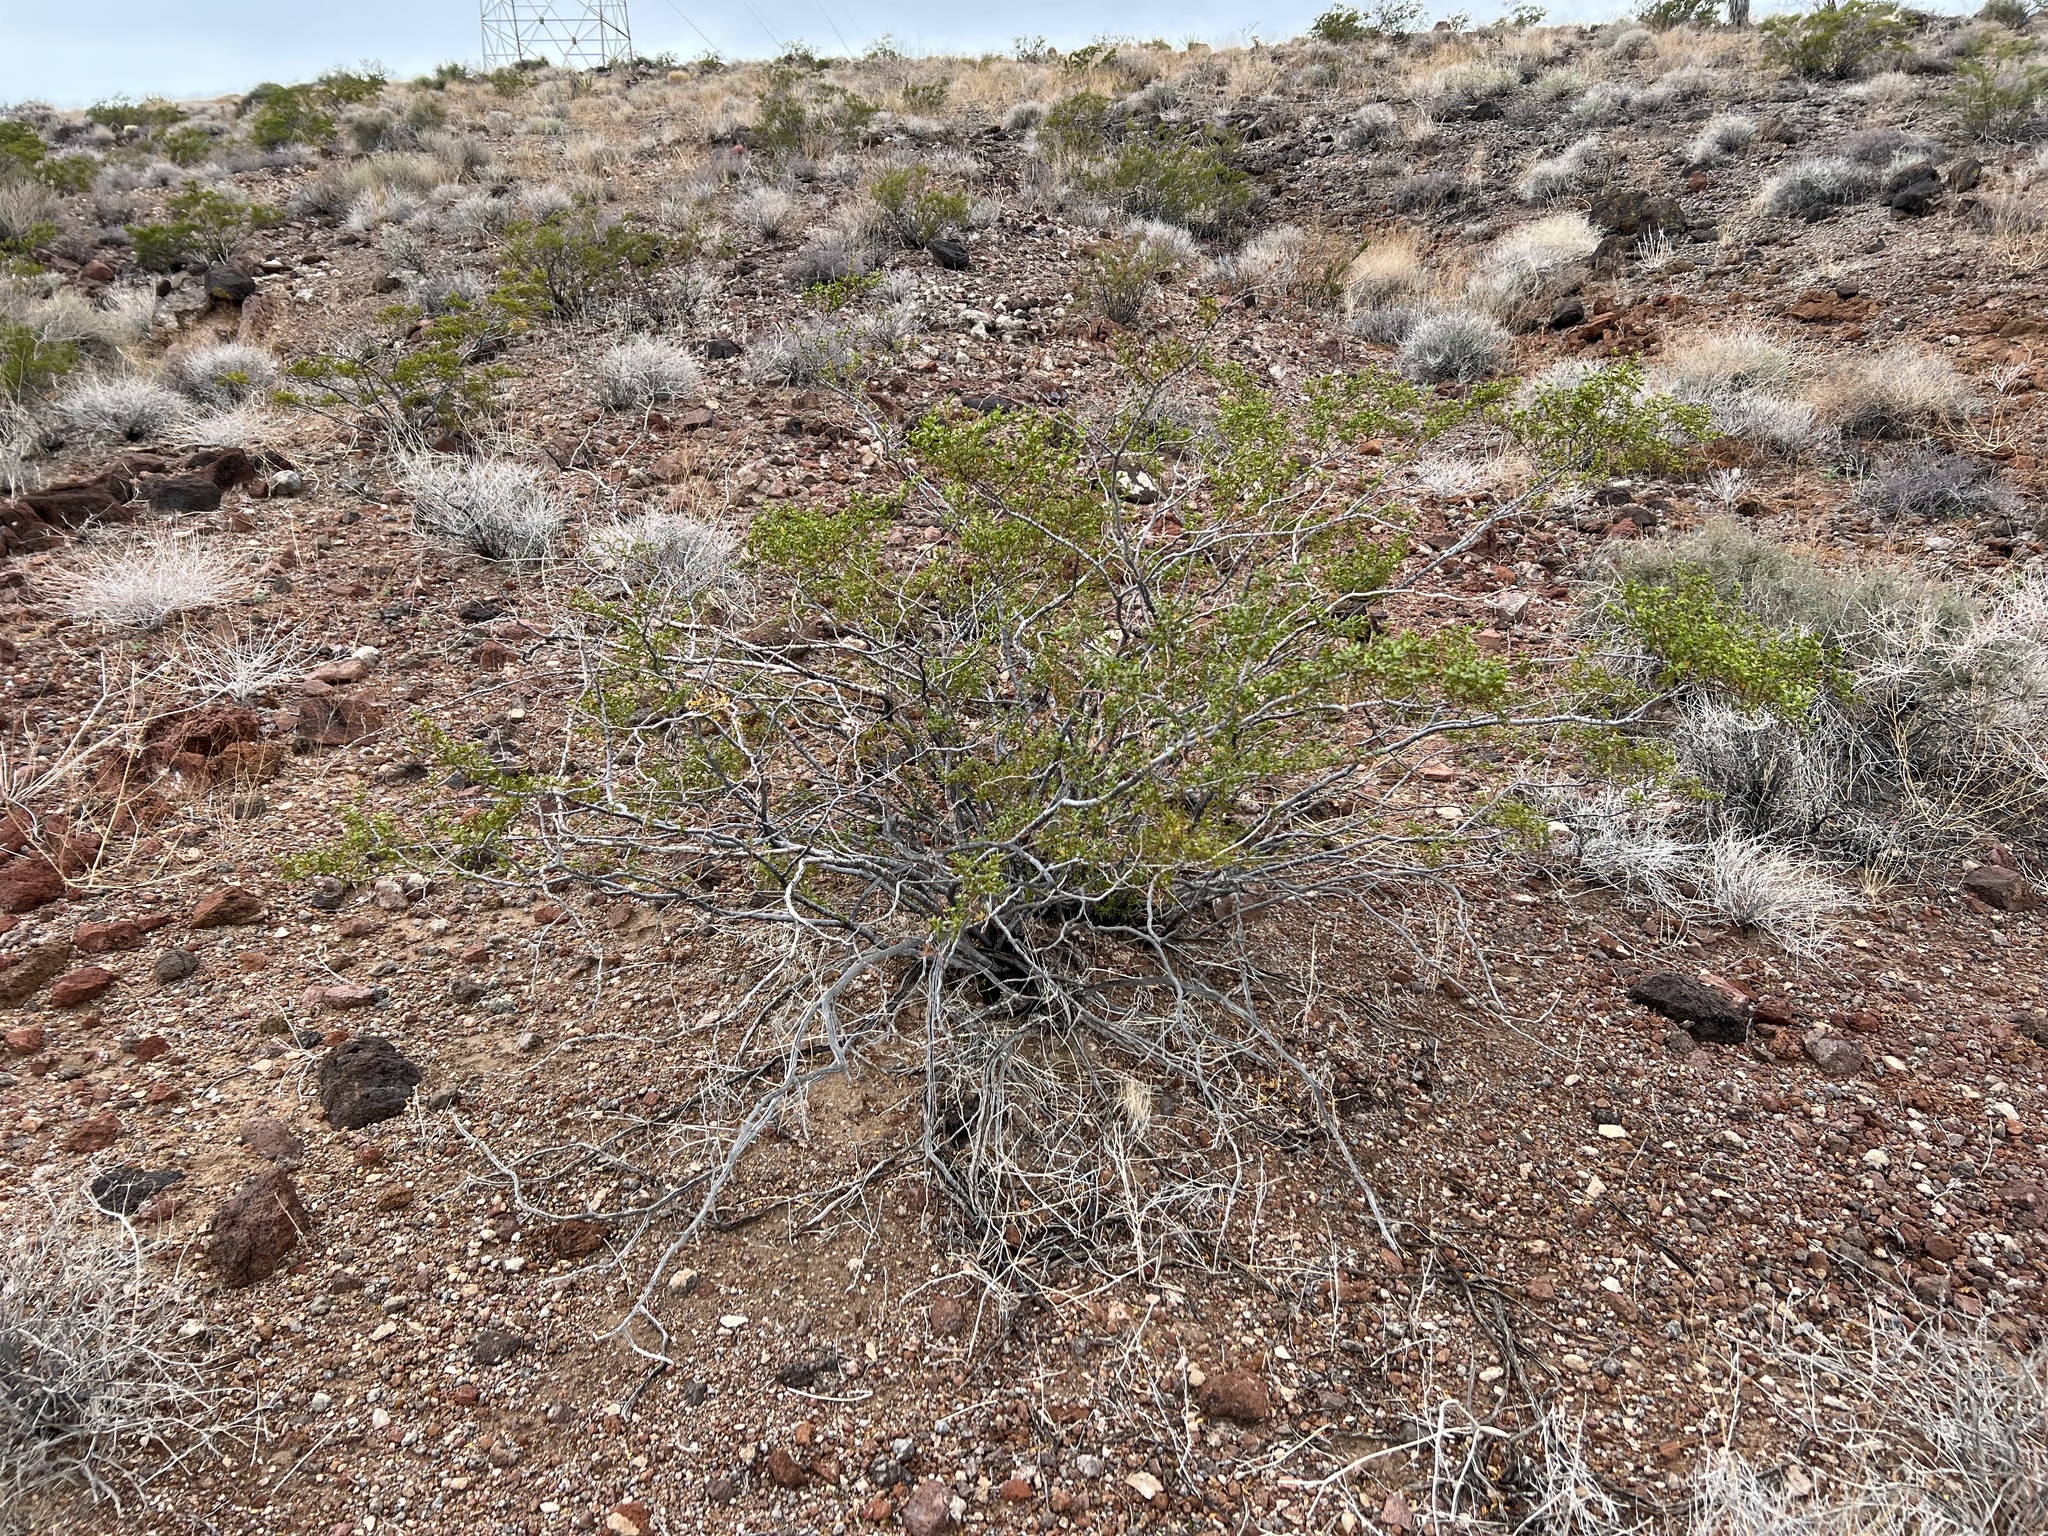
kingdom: Plantae
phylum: Tracheophyta
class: Magnoliopsida
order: Zygophyllales
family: Zygophyllaceae
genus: Larrea
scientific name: Larrea tridentata
